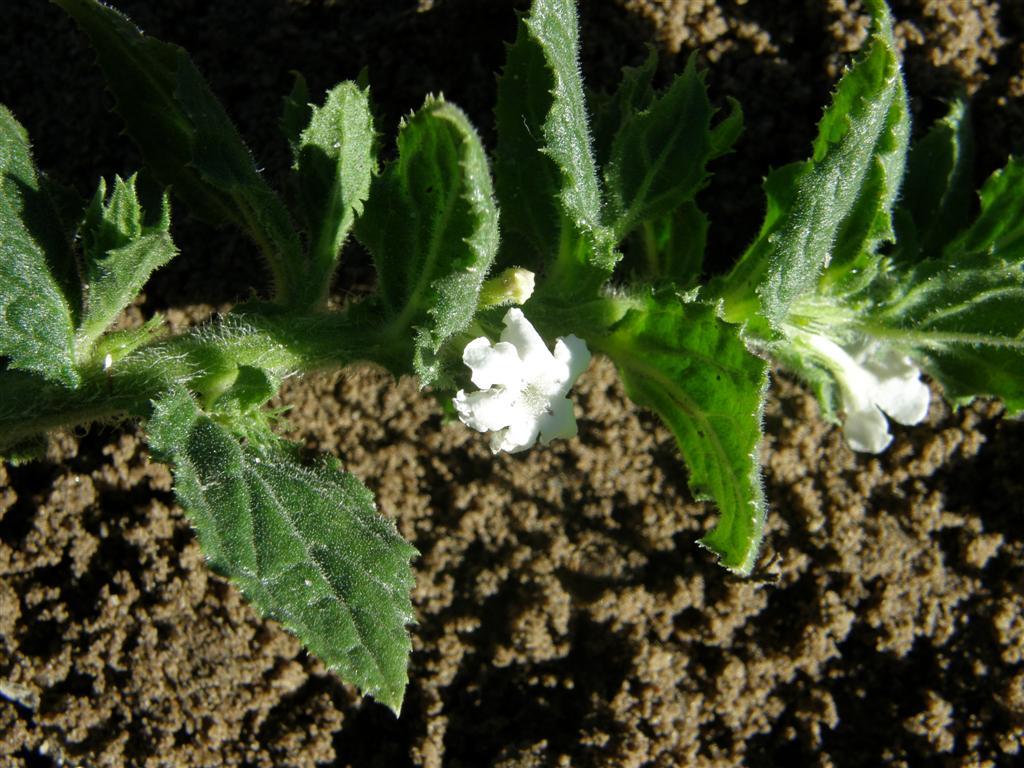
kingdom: Plantae
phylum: Tracheophyta
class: Magnoliopsida
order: Lamiales
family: Scrophulariaceae
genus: Oftia
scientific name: Oftia africana
